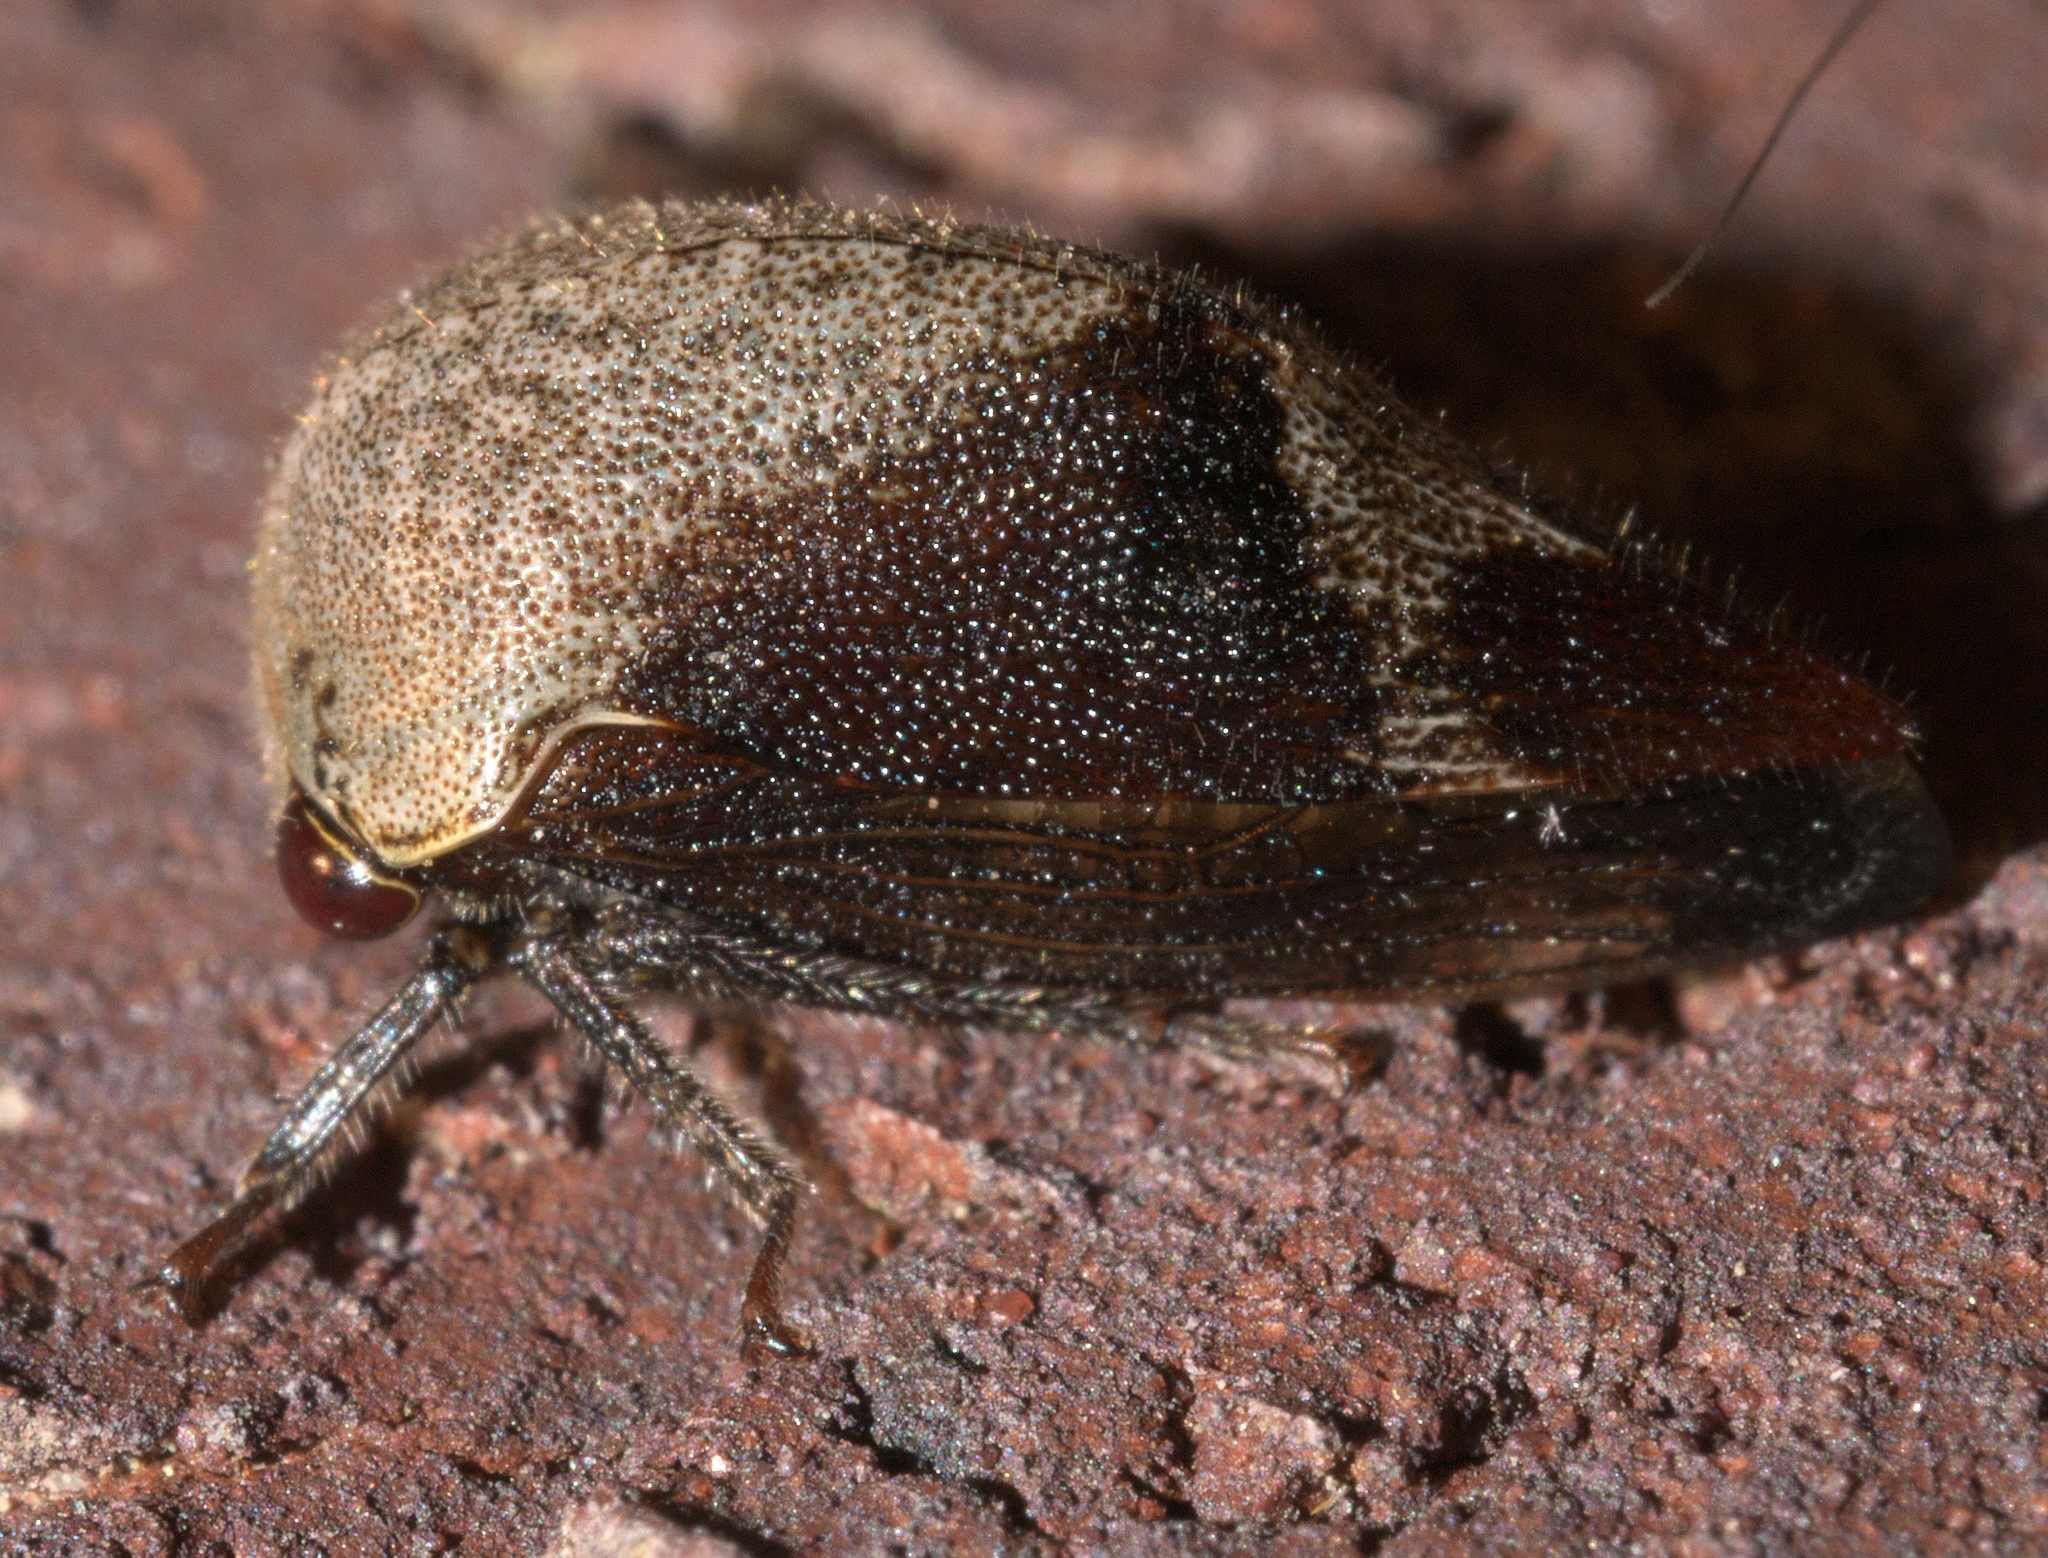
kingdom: Animalia
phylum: Arthropoda
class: Insecta
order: Hemiptera
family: Membracidae
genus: Carynota
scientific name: Carynota mera
